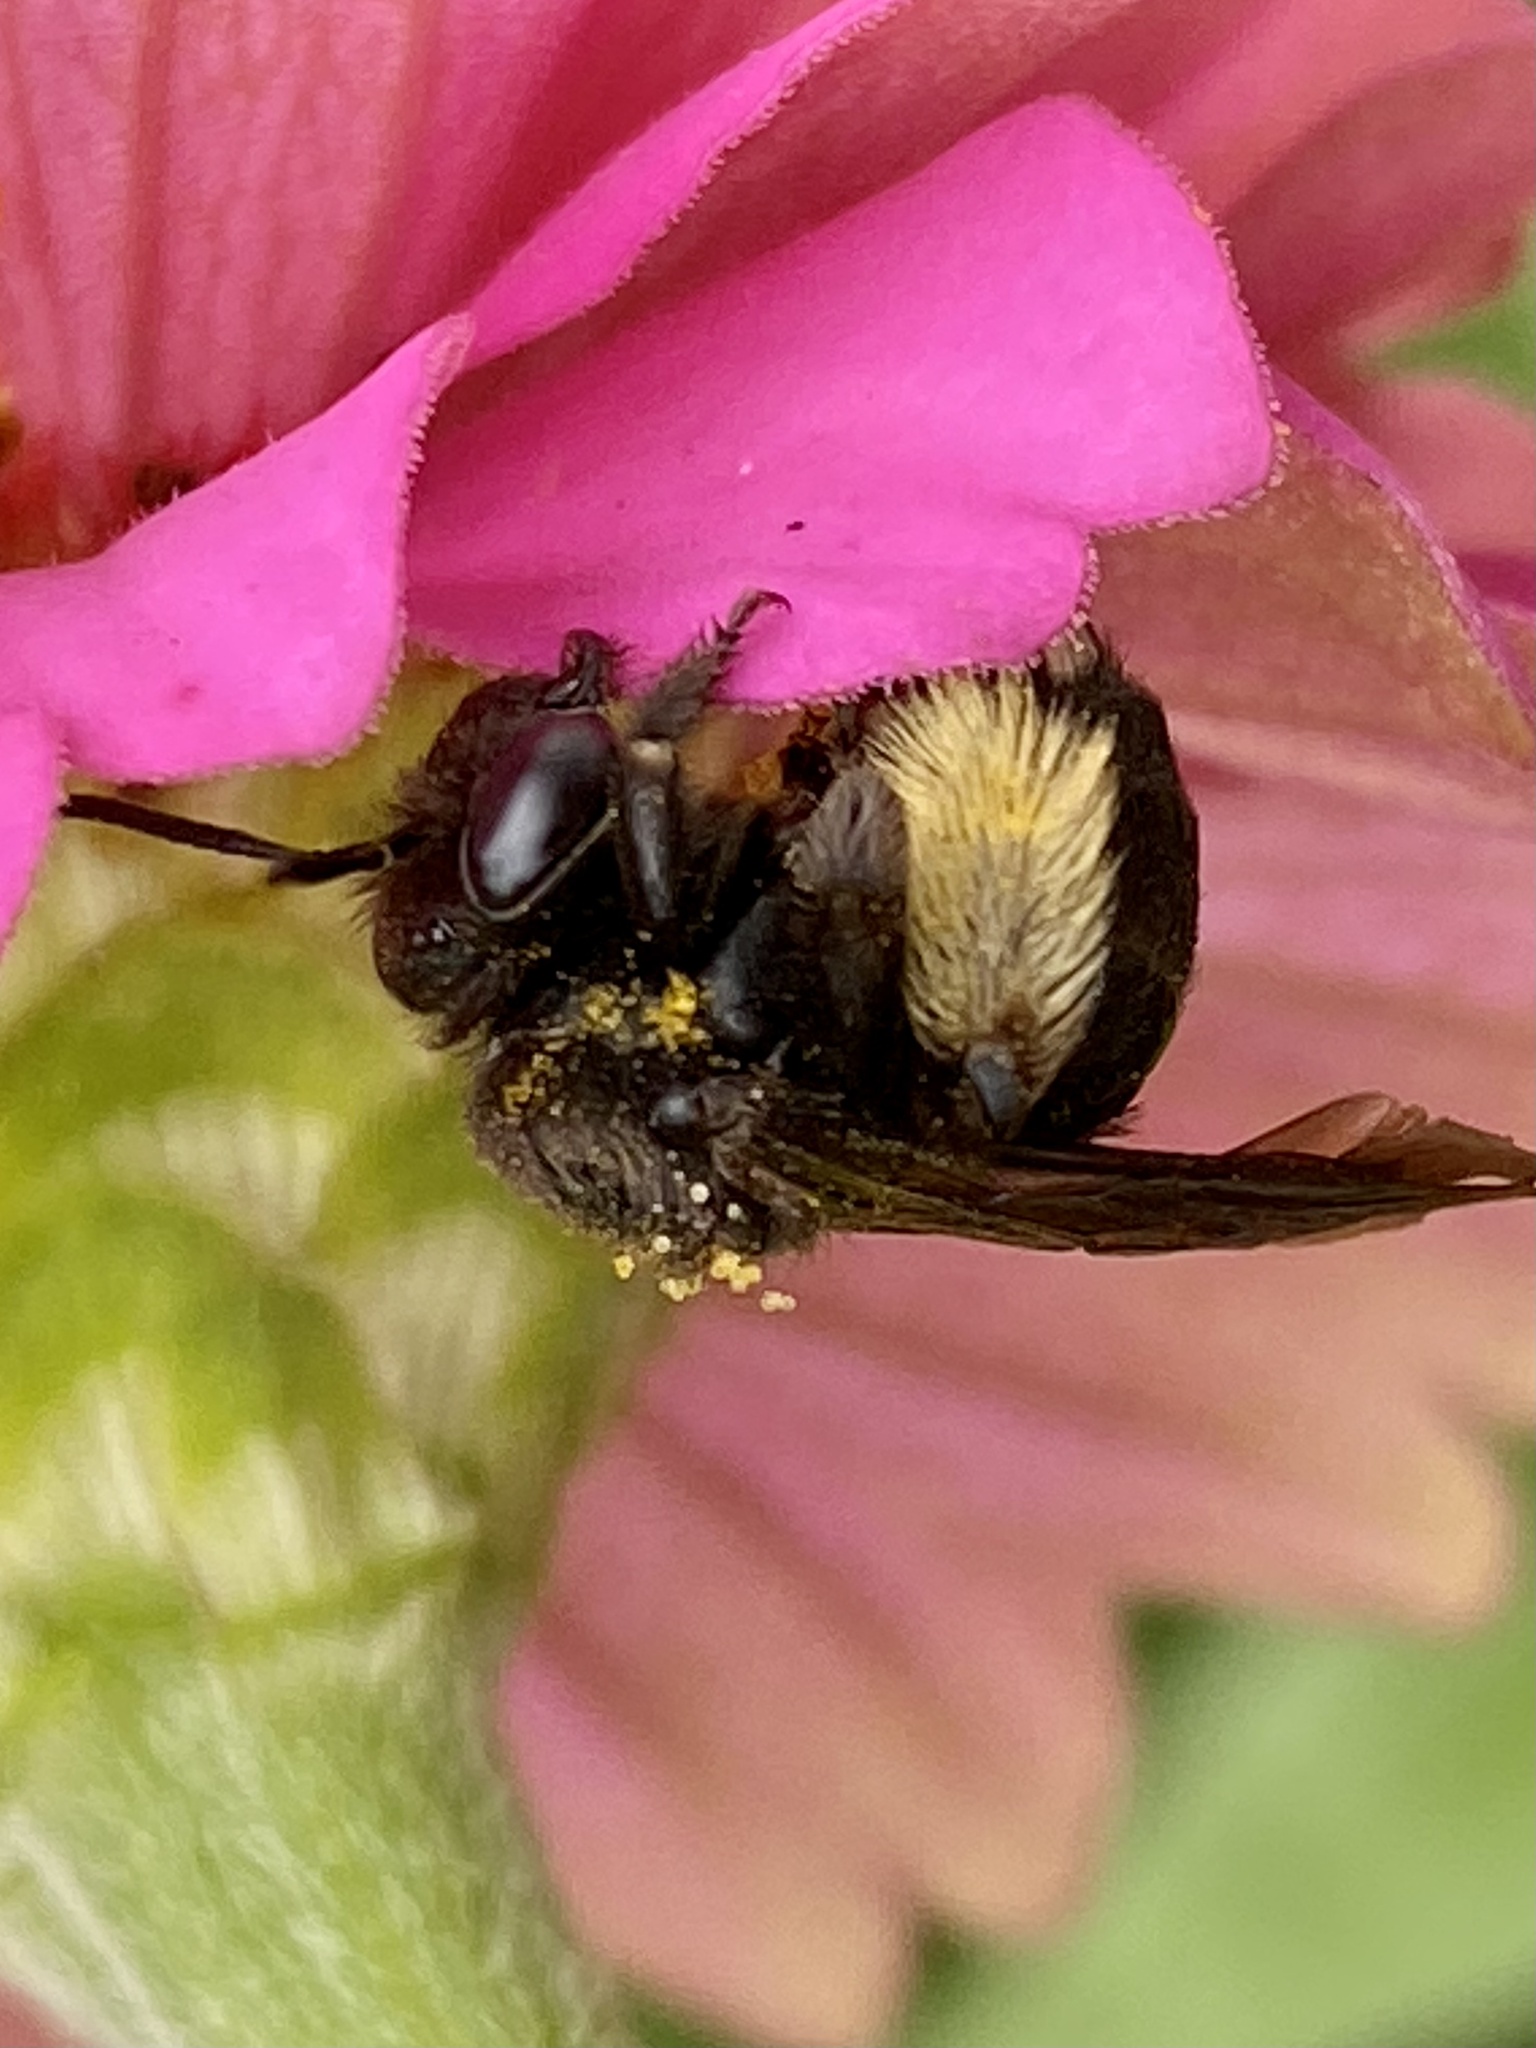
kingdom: Animalia
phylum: Arthropoda
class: Insecta
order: Hymenoptera
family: Apidae
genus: Melissodes
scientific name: Melissodes bimaculatus
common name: Two-spotted long-horned bee
